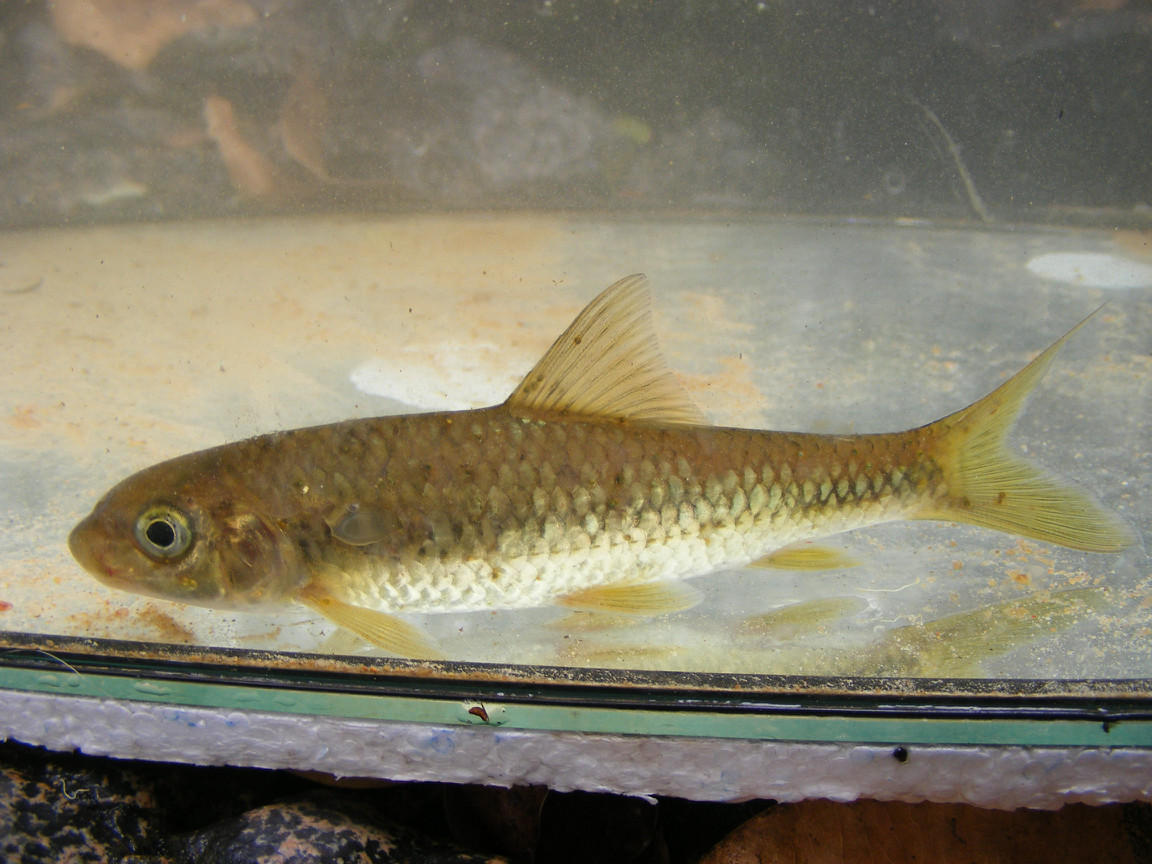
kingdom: Animalia
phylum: Chordata
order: Cypriniformes
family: Cyprinidae
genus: Labeobarbus
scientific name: Labeobarbus nelspruitensis
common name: Incomati chiselmouth
